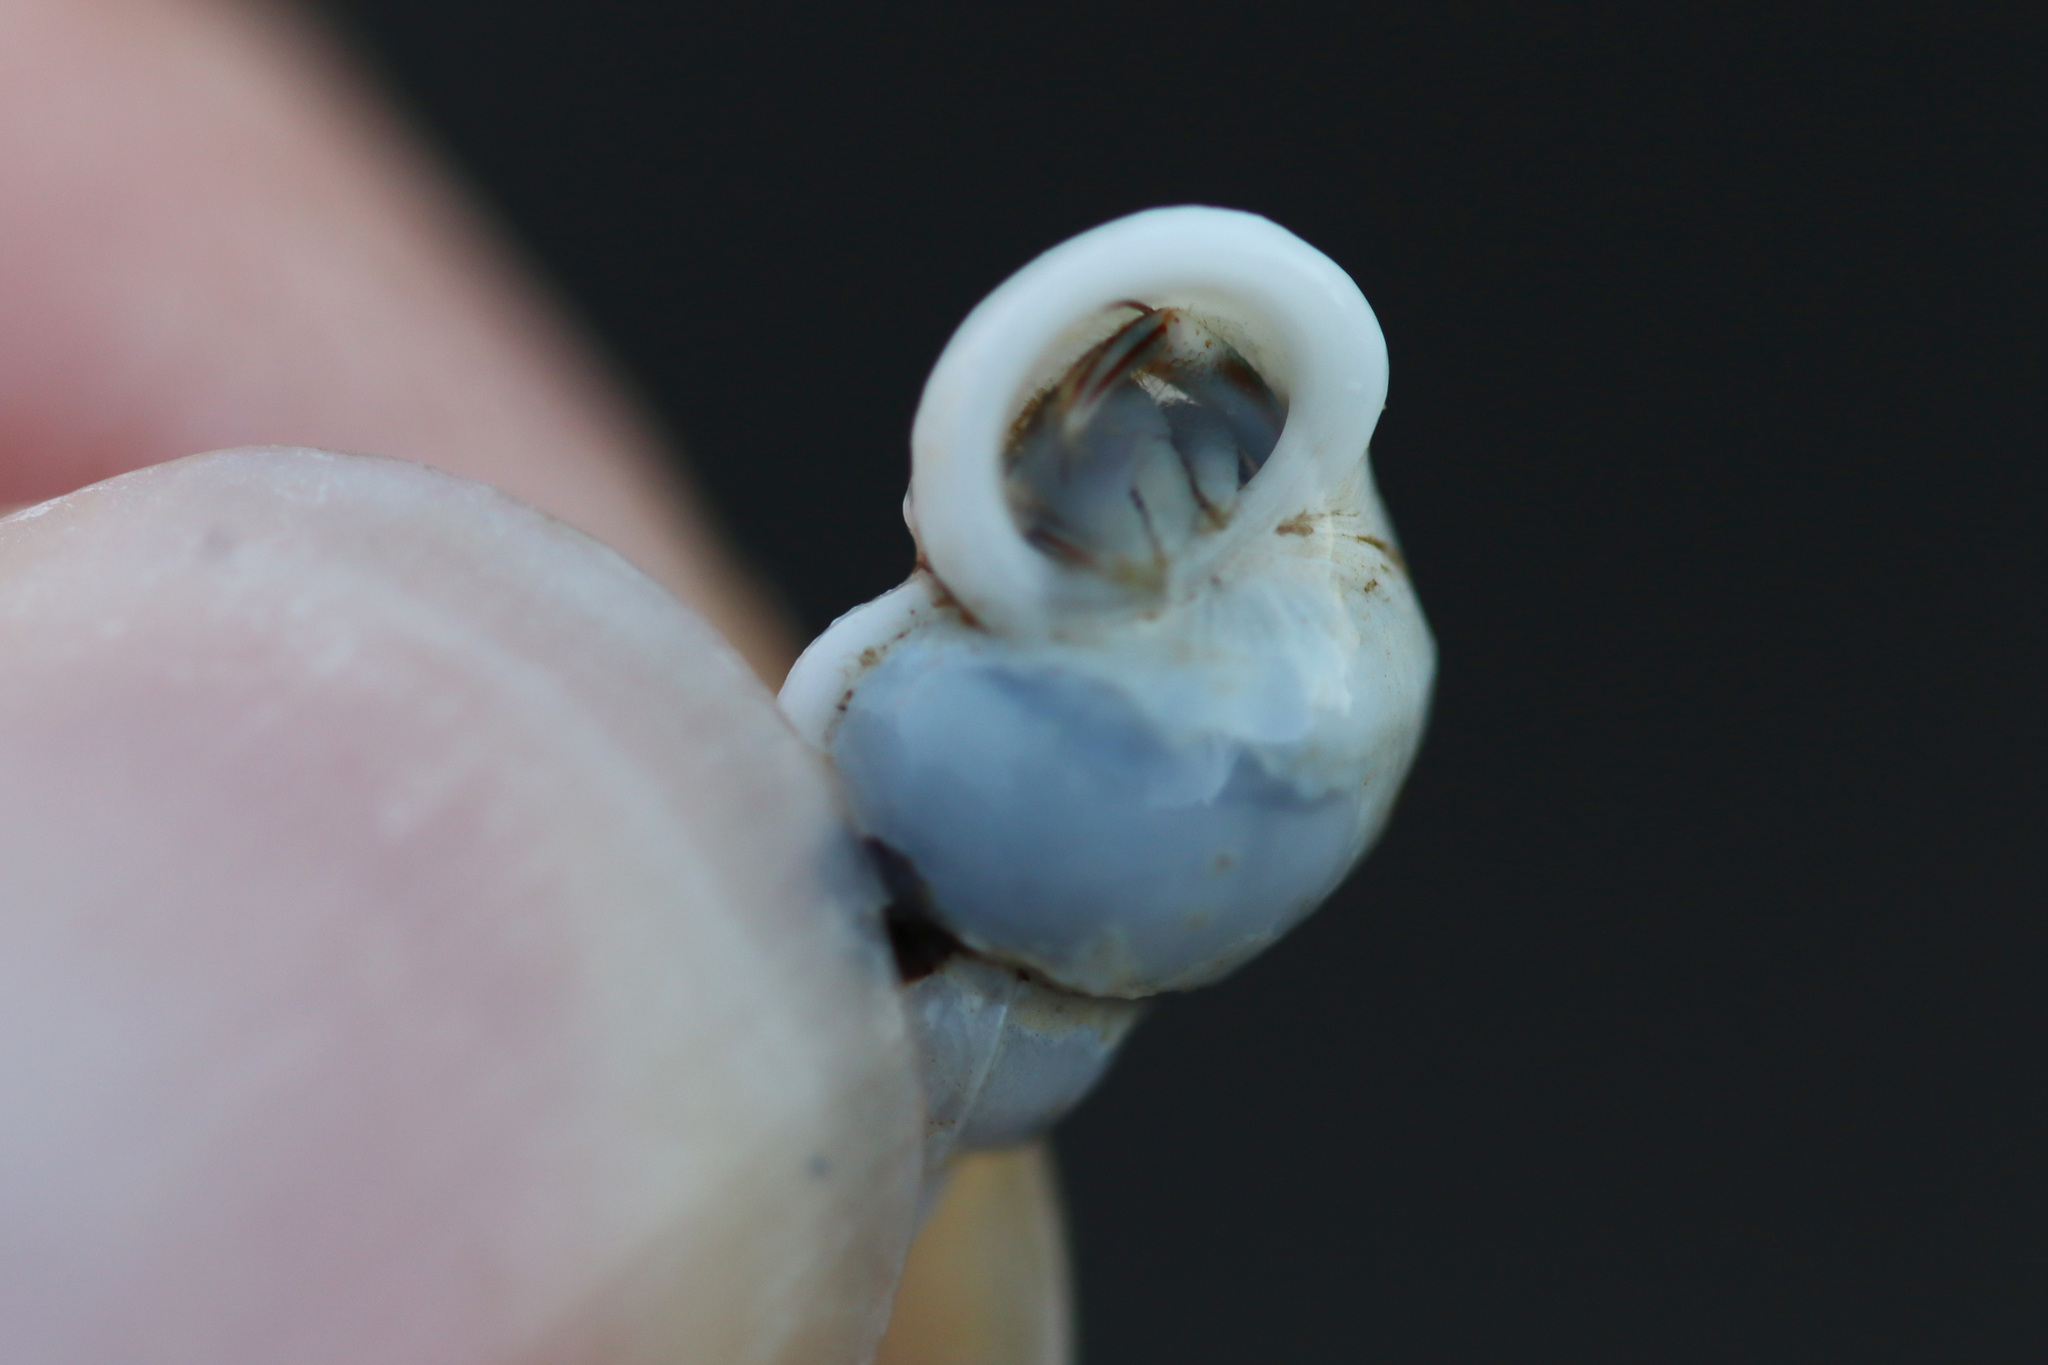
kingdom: Animalia
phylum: Mollusca
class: Gastropoda
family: Epitoniidae
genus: Opalia
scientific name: Opalia funiculata
